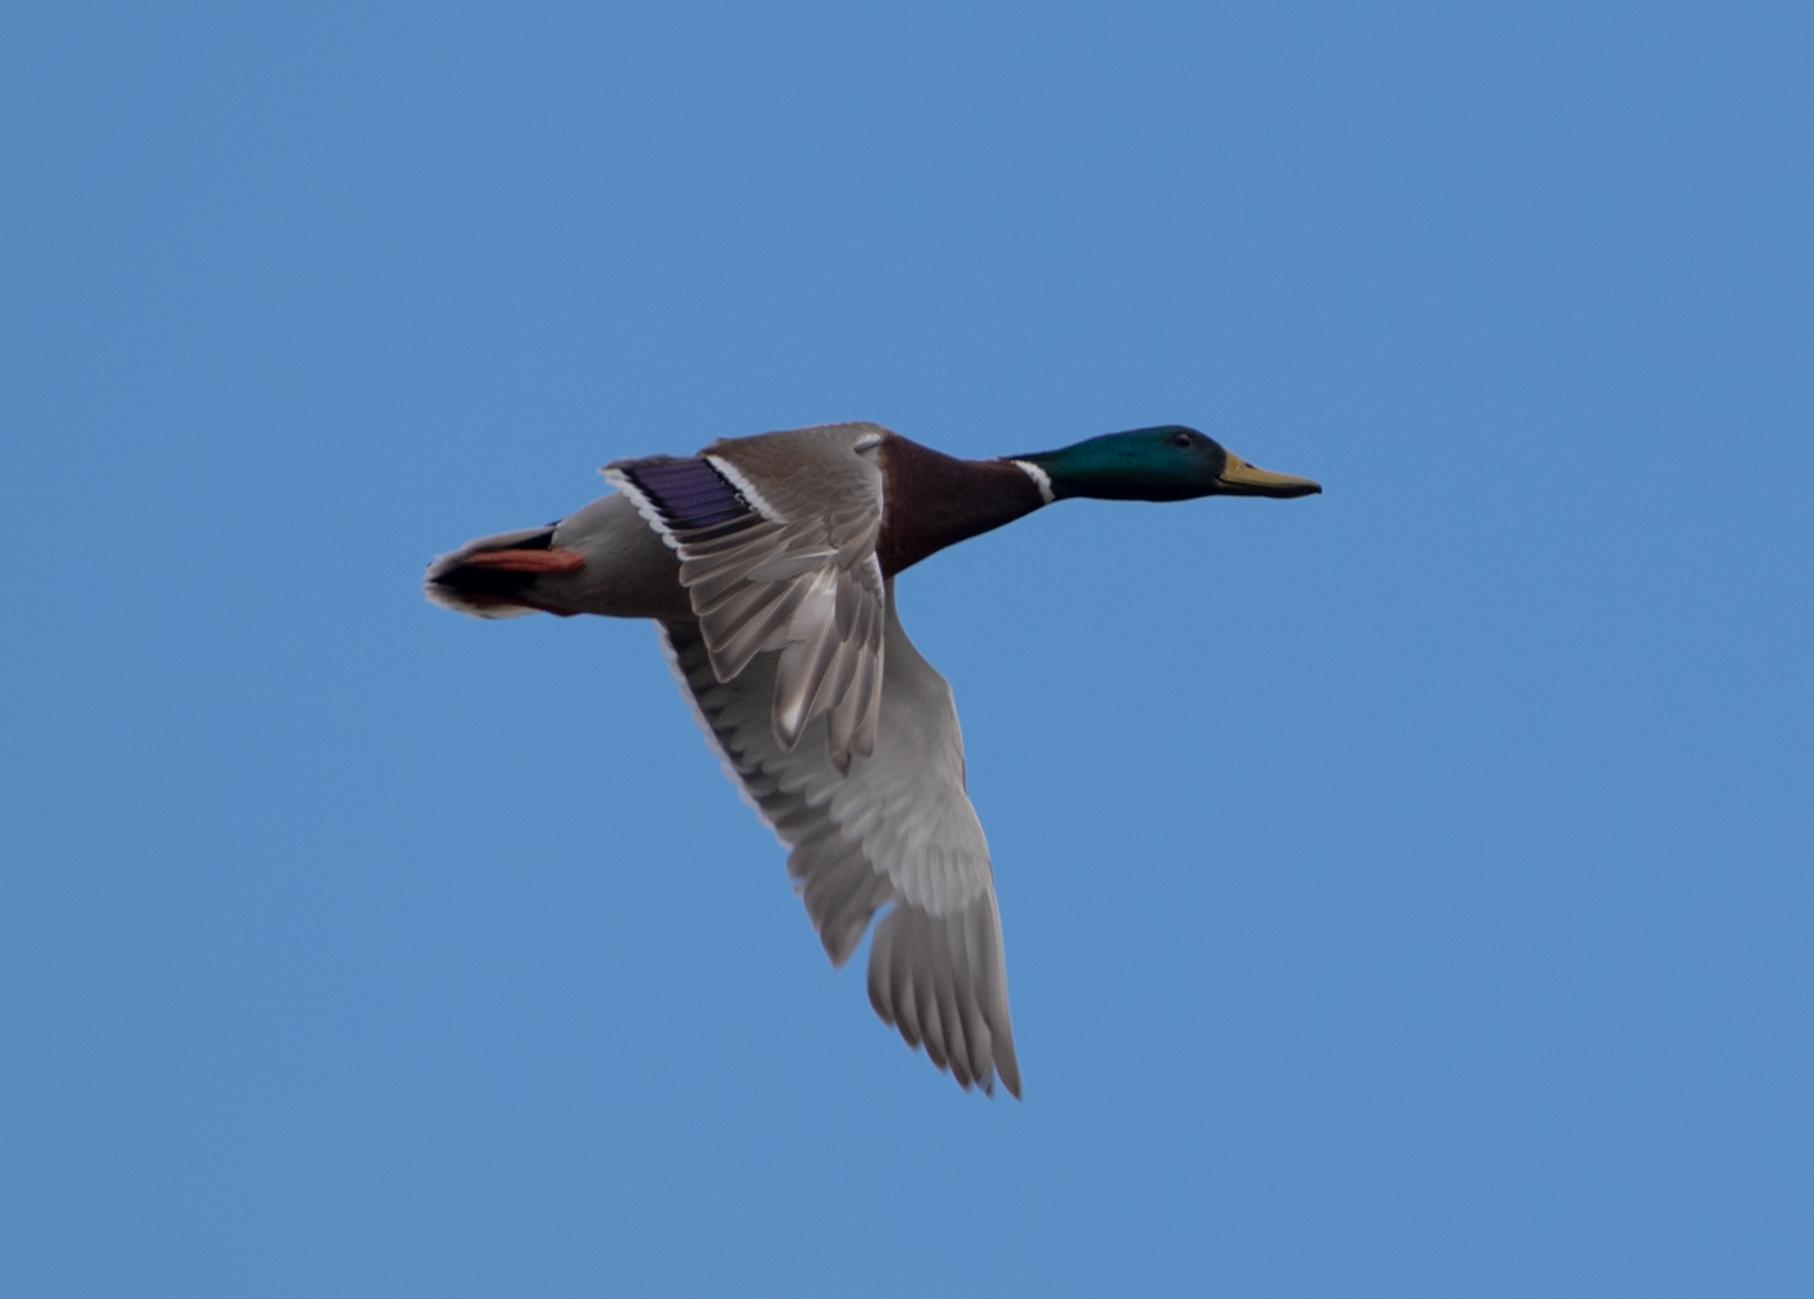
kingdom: Animalia
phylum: Chordata
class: Aves
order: Anseriformes
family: Anatidae
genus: Anas
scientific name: Anas platyrhynchos
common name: Mallard
